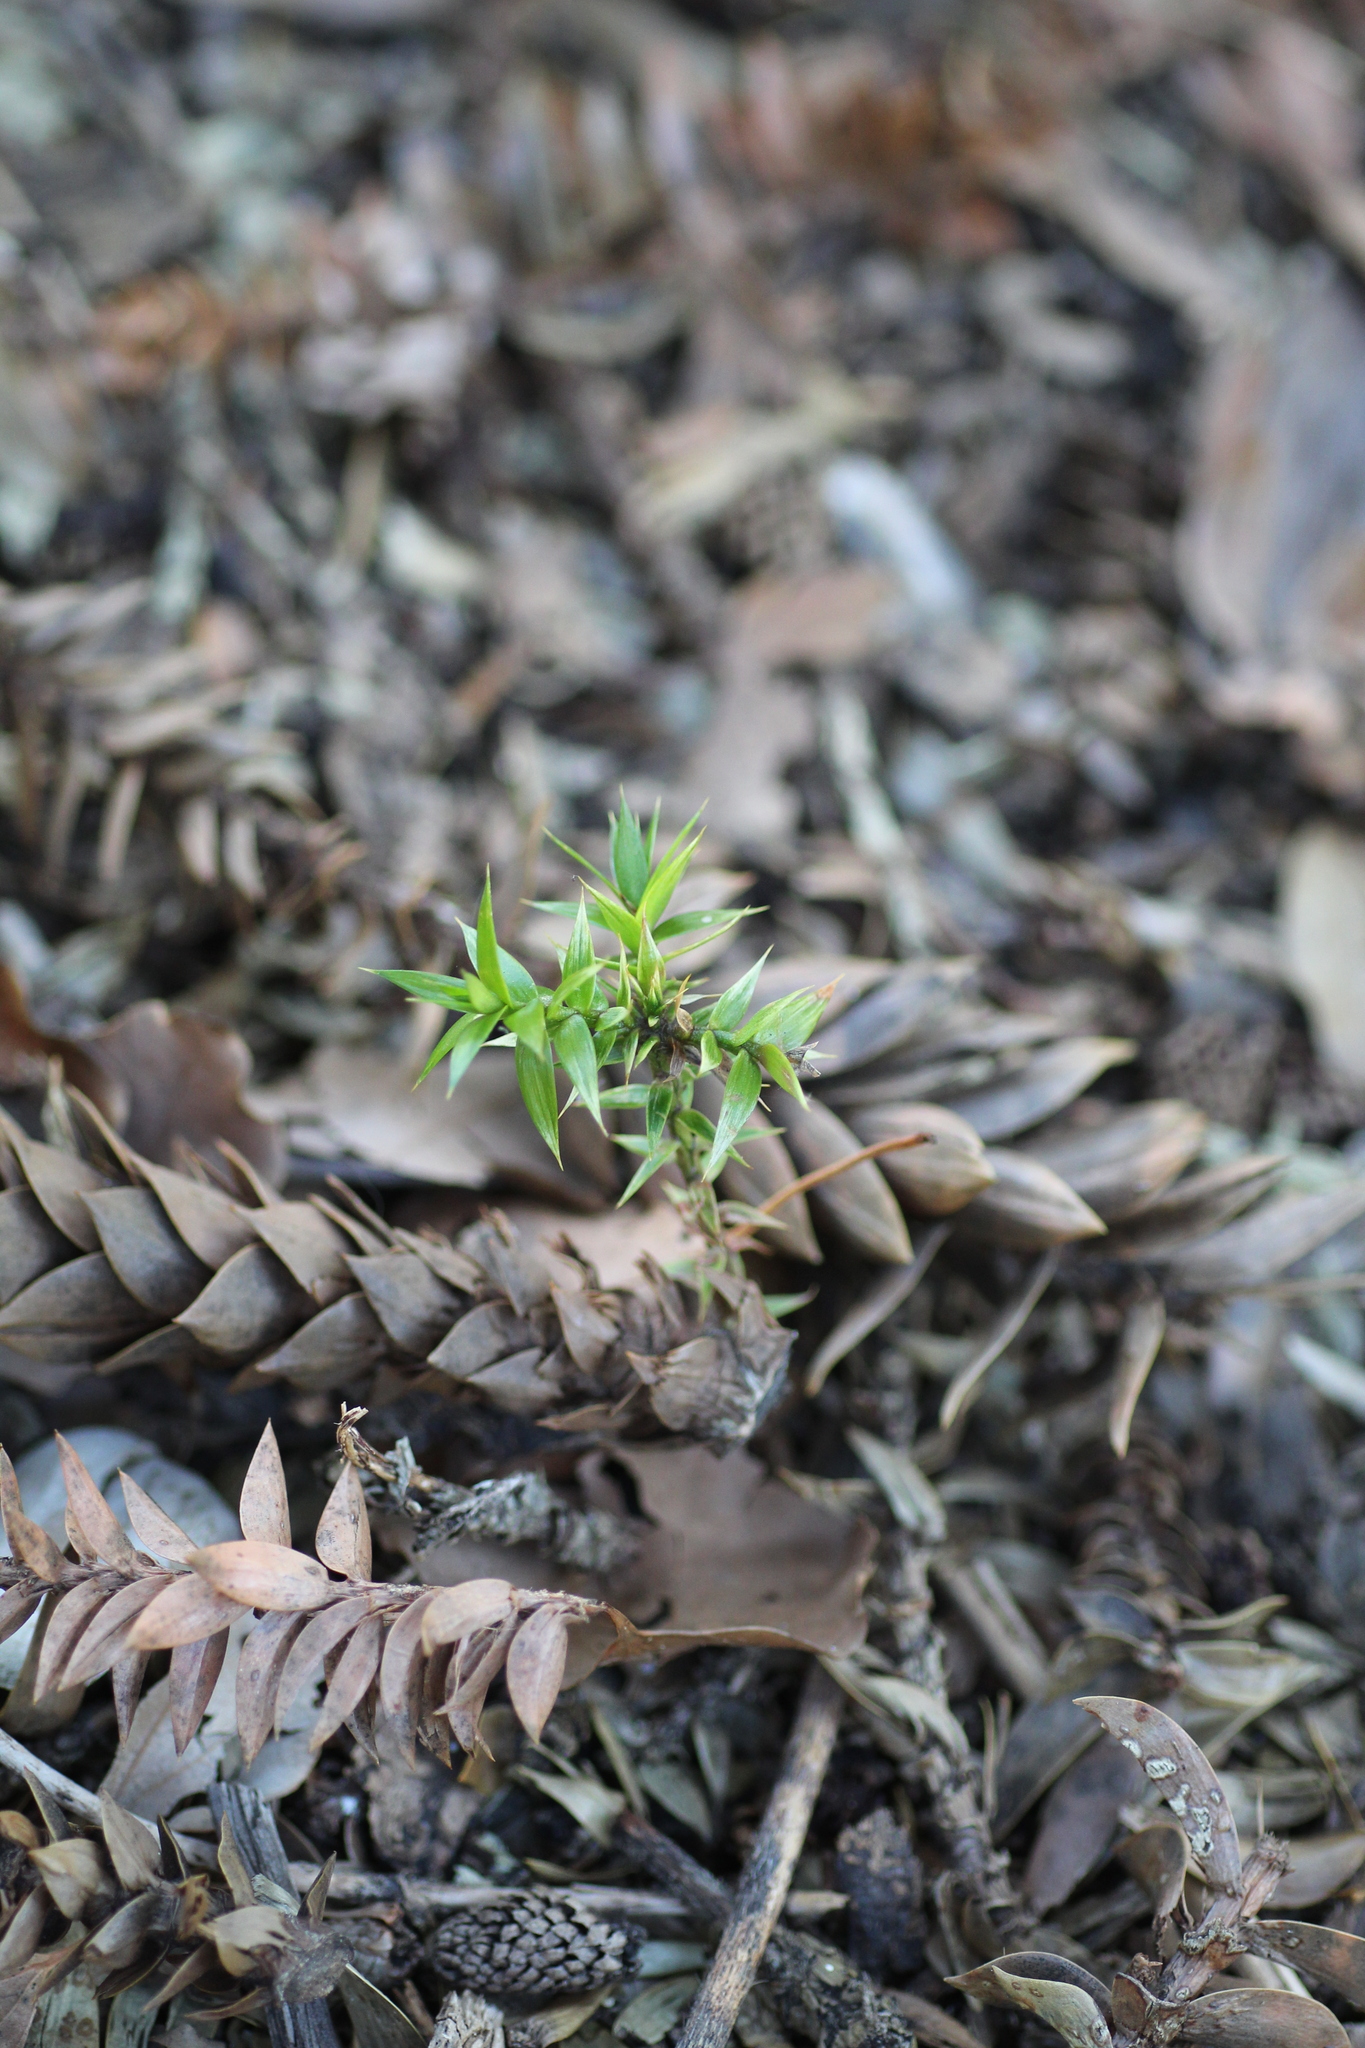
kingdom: Plantae
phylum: Tracheophyta
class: Pinopsida
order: Pinales
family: Araucariaceae
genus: Araucaria
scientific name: Araucaria bidwillii
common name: Moreton-bay-pine
